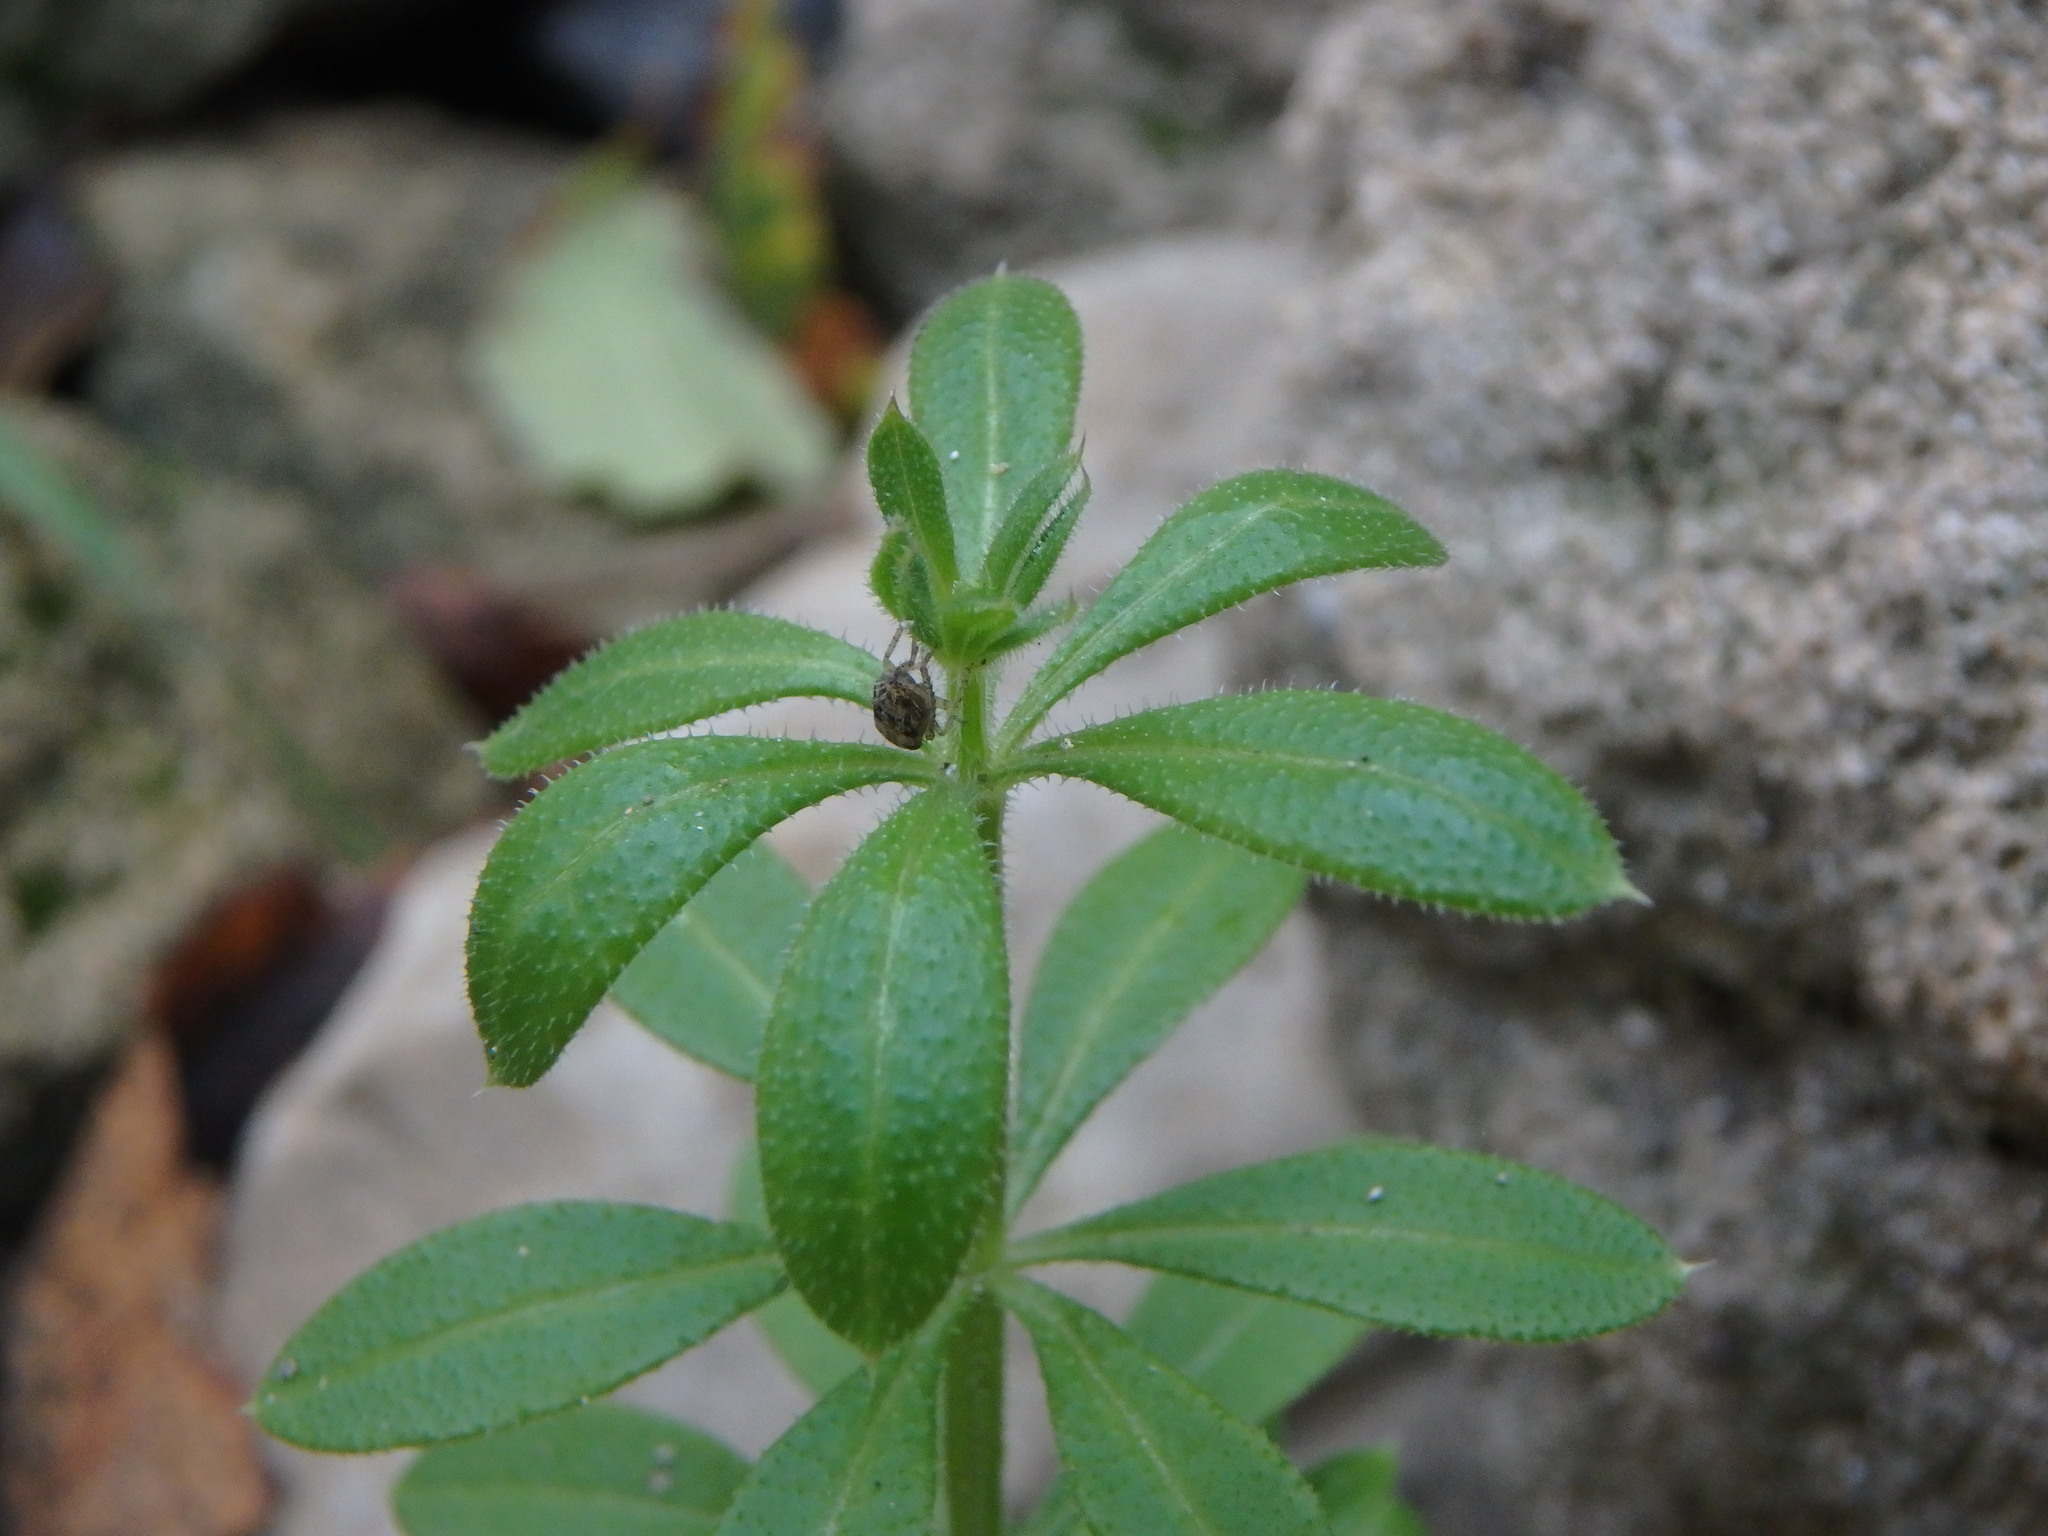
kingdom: Plantae
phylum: Tracheophyta
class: Magnoliopsida
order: Gentianales
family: Rubiaceae
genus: Galium
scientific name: Galium aparine
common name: Cleavers
